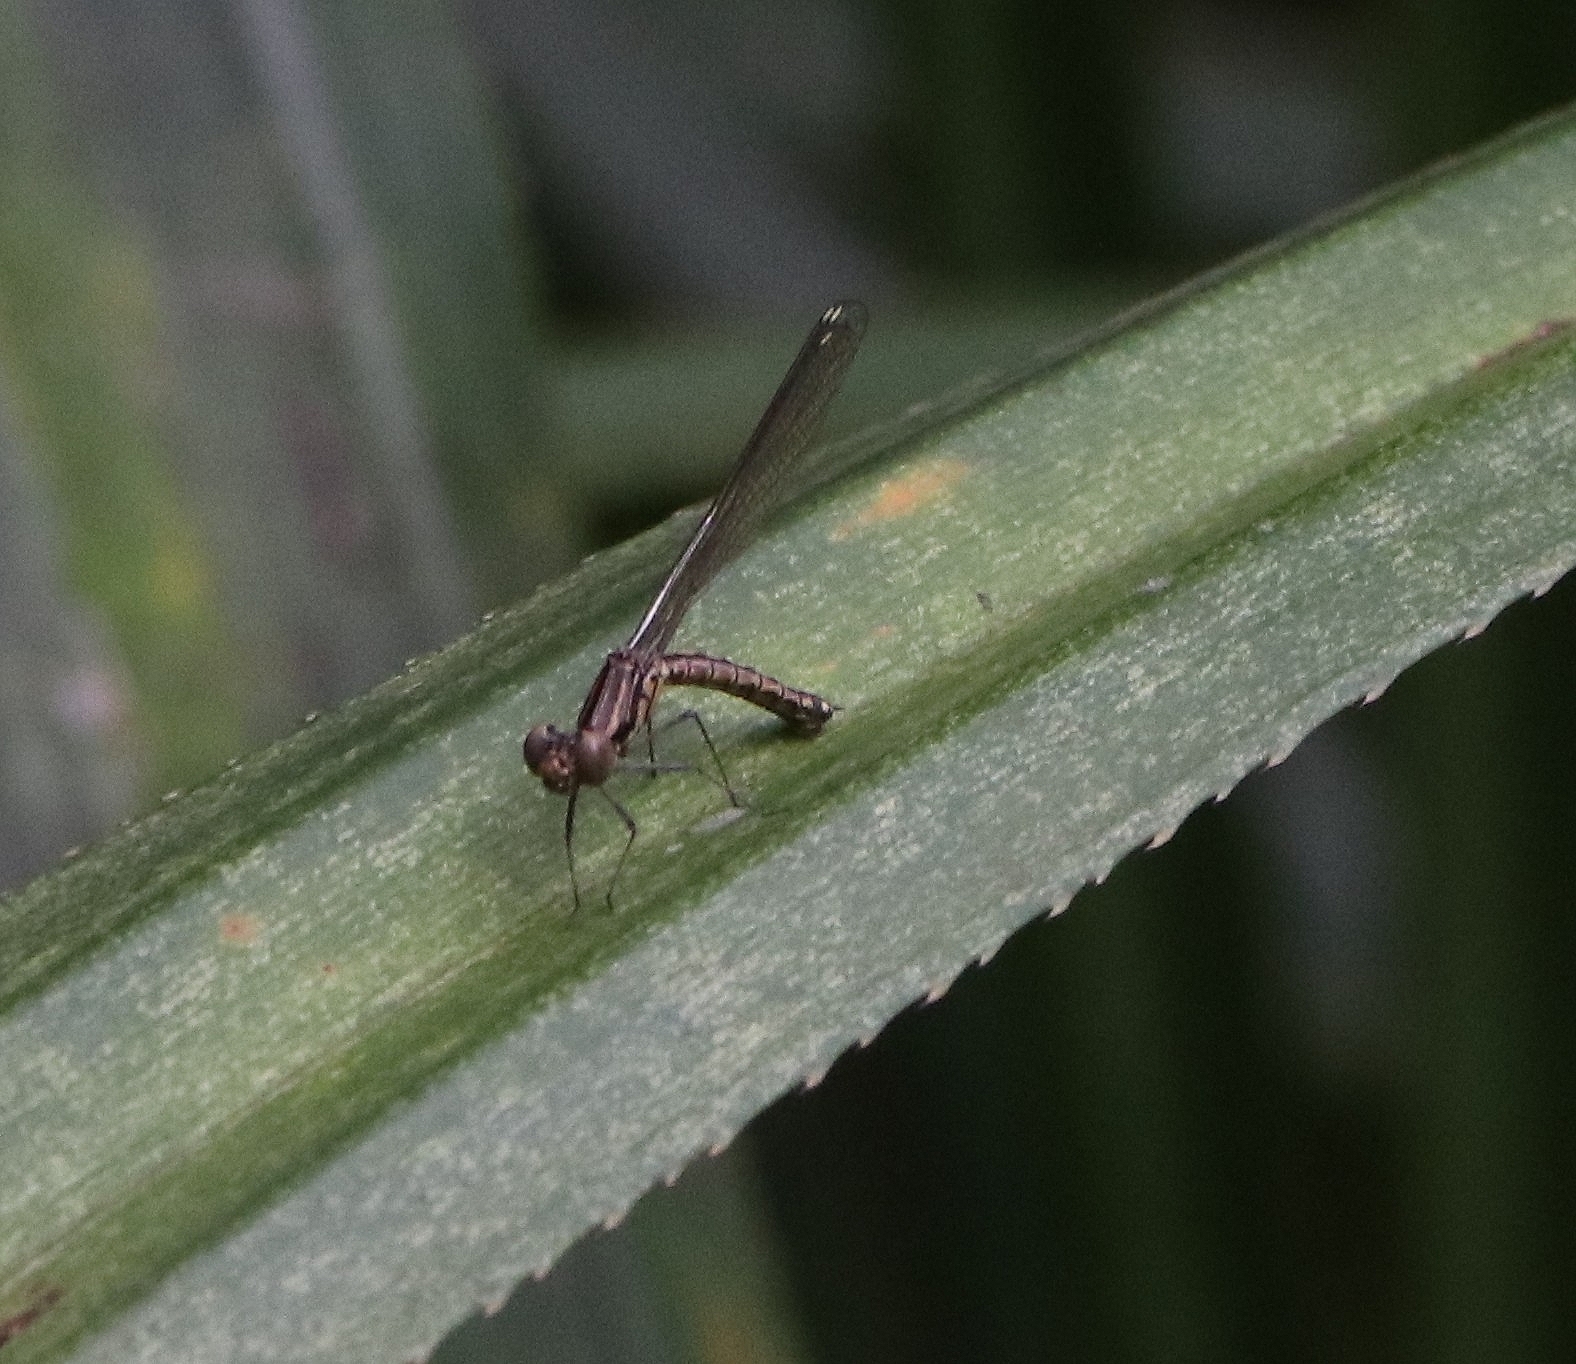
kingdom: Animalia
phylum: Arthropoda
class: Insecta
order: Odonata
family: Chlorocyphidae
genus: Libellago
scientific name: Libellago indica
